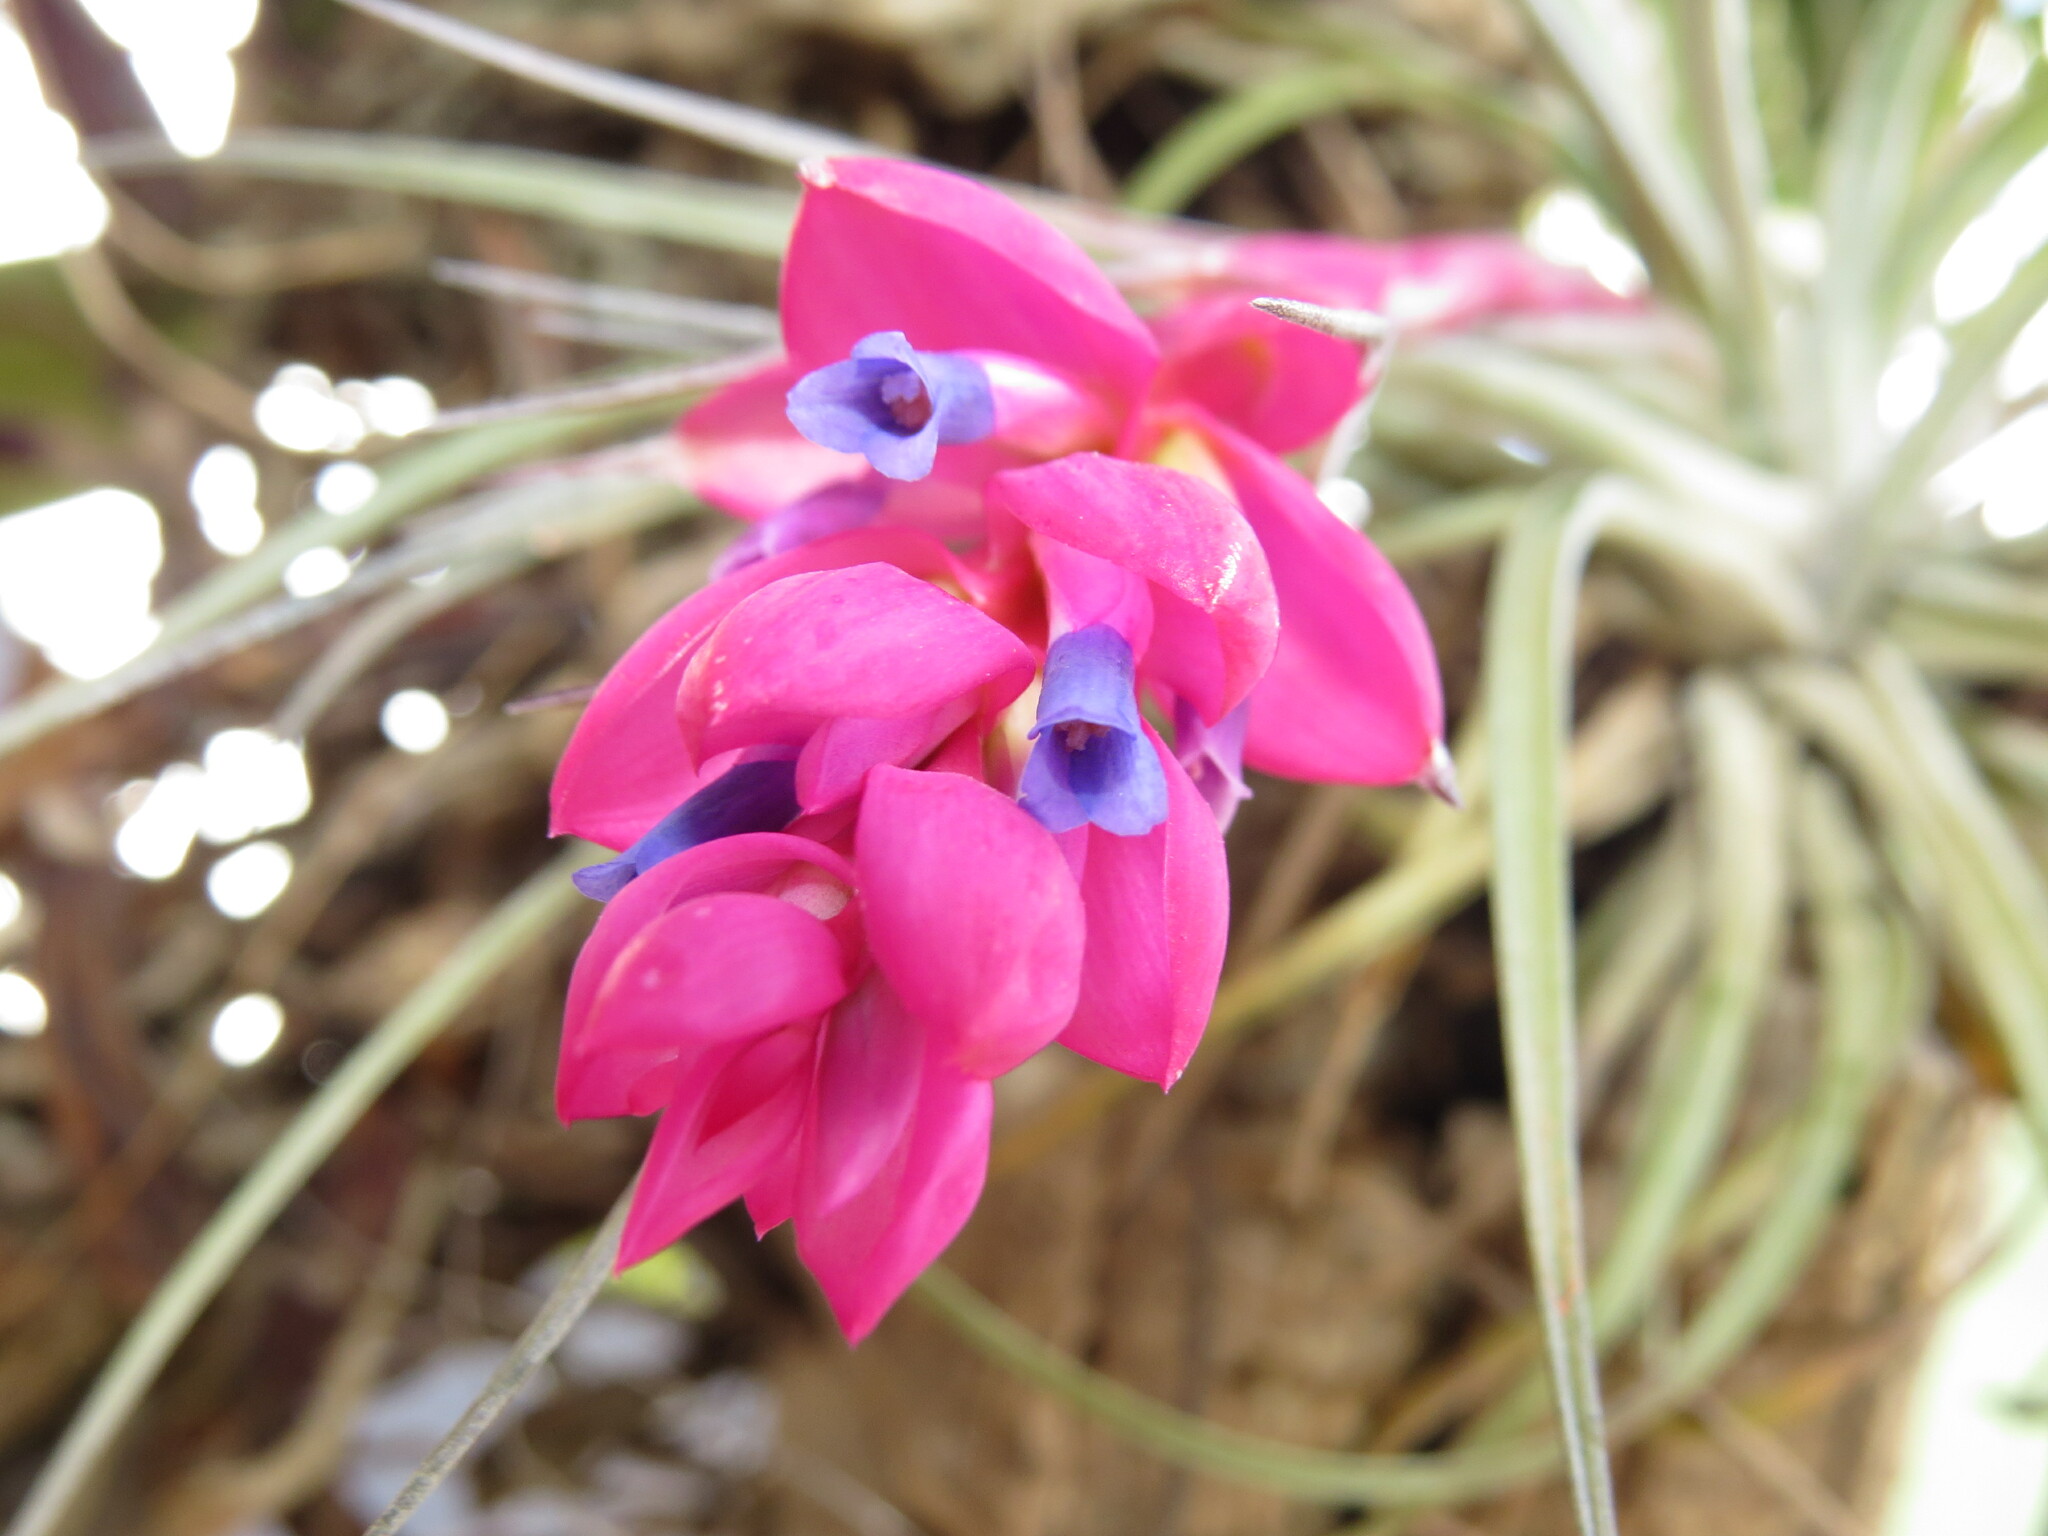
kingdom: Plantae
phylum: Tracheophyta
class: Liliopsida
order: Poales
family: Bromeliaceae
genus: Tillandsia
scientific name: Tillandsia stricta
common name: Airplant
